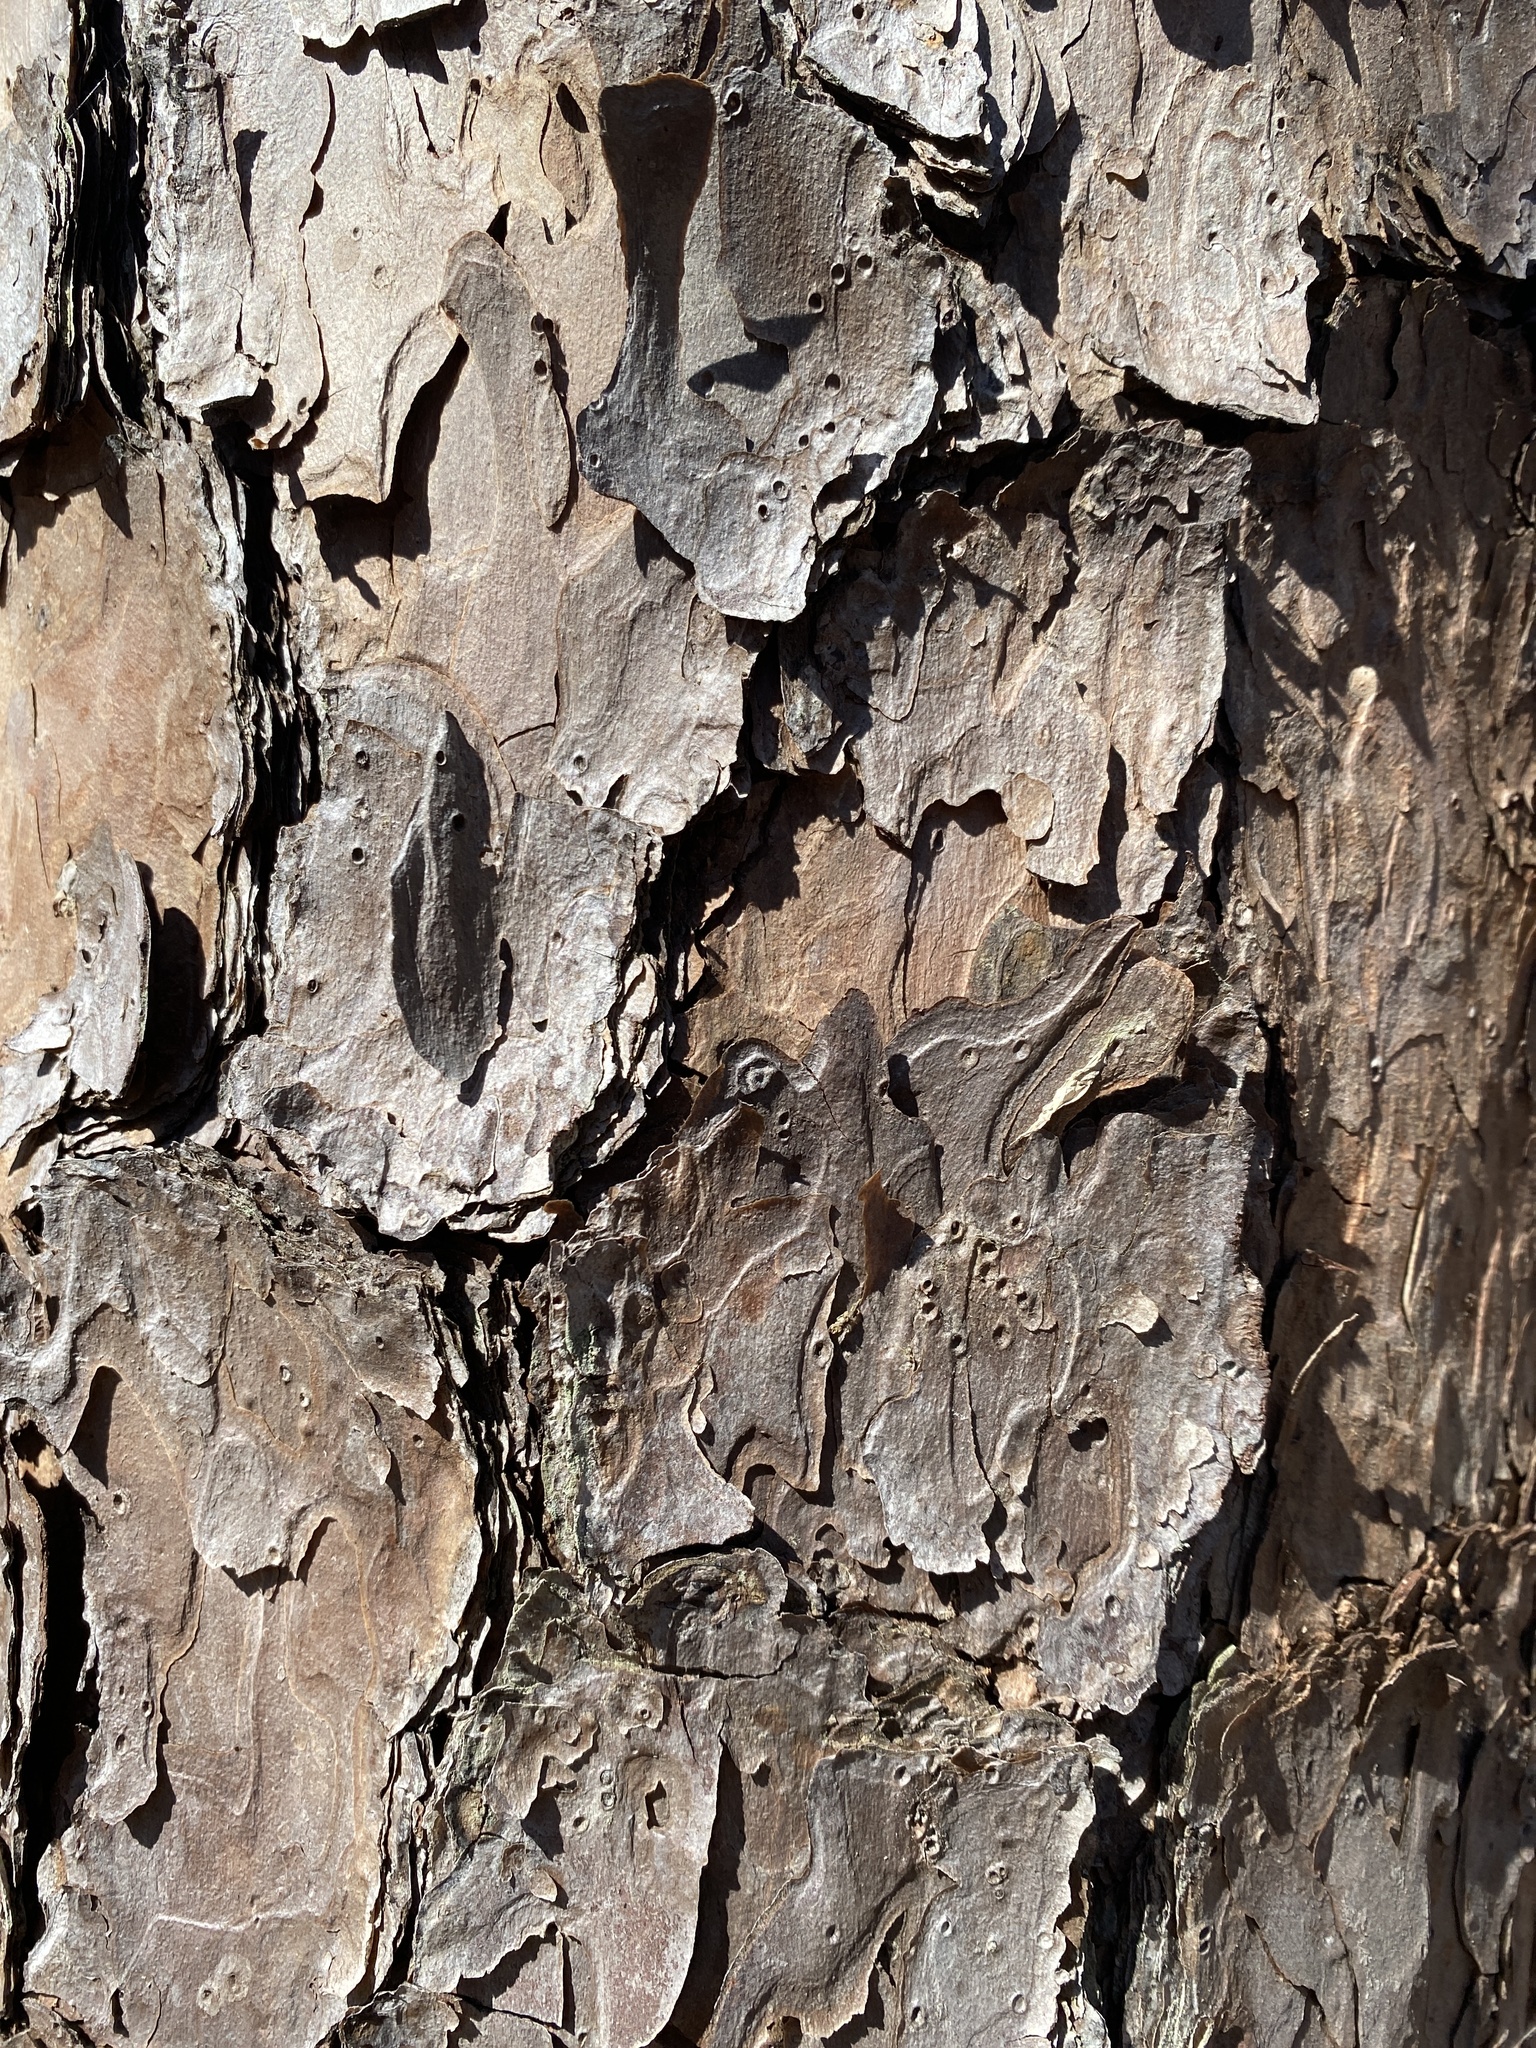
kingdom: Plantae
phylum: Tracheophyta
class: Pinopsida
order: Pinales
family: Pinaceae
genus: Pinus
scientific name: Pinus echinata
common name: Shortleaf pine
